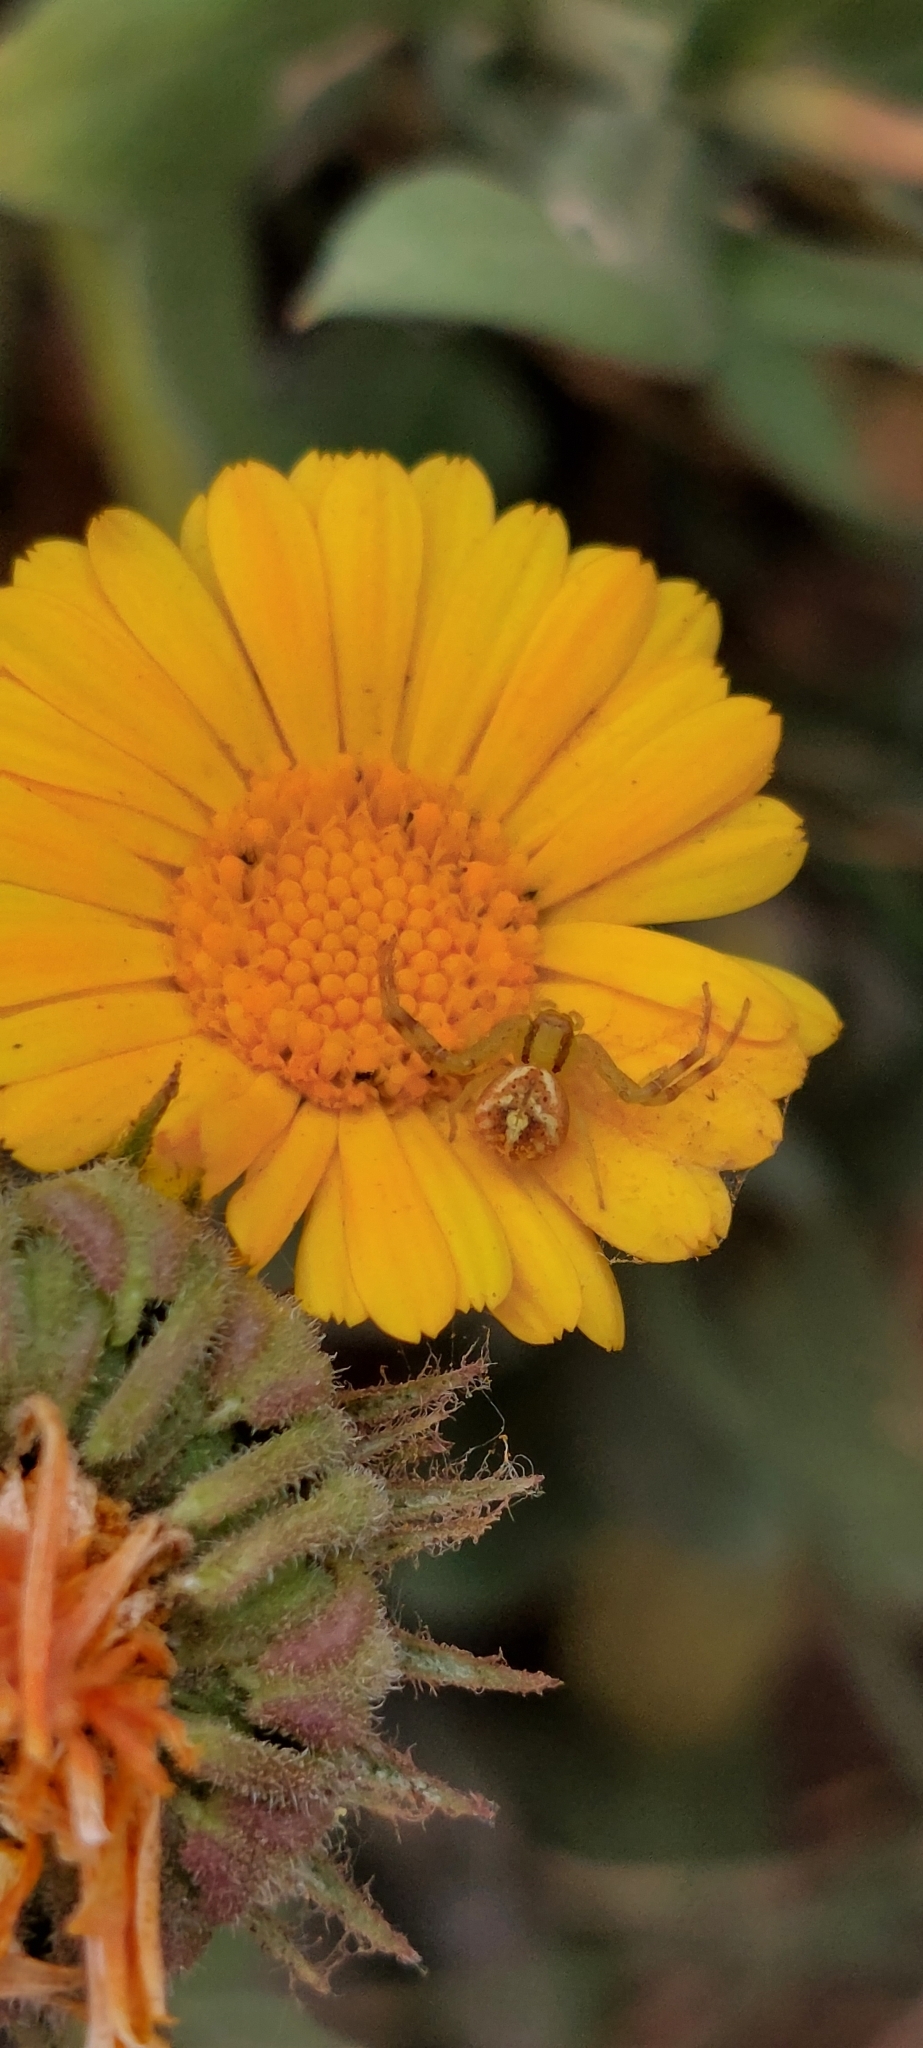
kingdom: Animalia
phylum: Arthropoda
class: Arachnida
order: Araneae
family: Thomisidae
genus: Misumenops
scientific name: Misumenops
